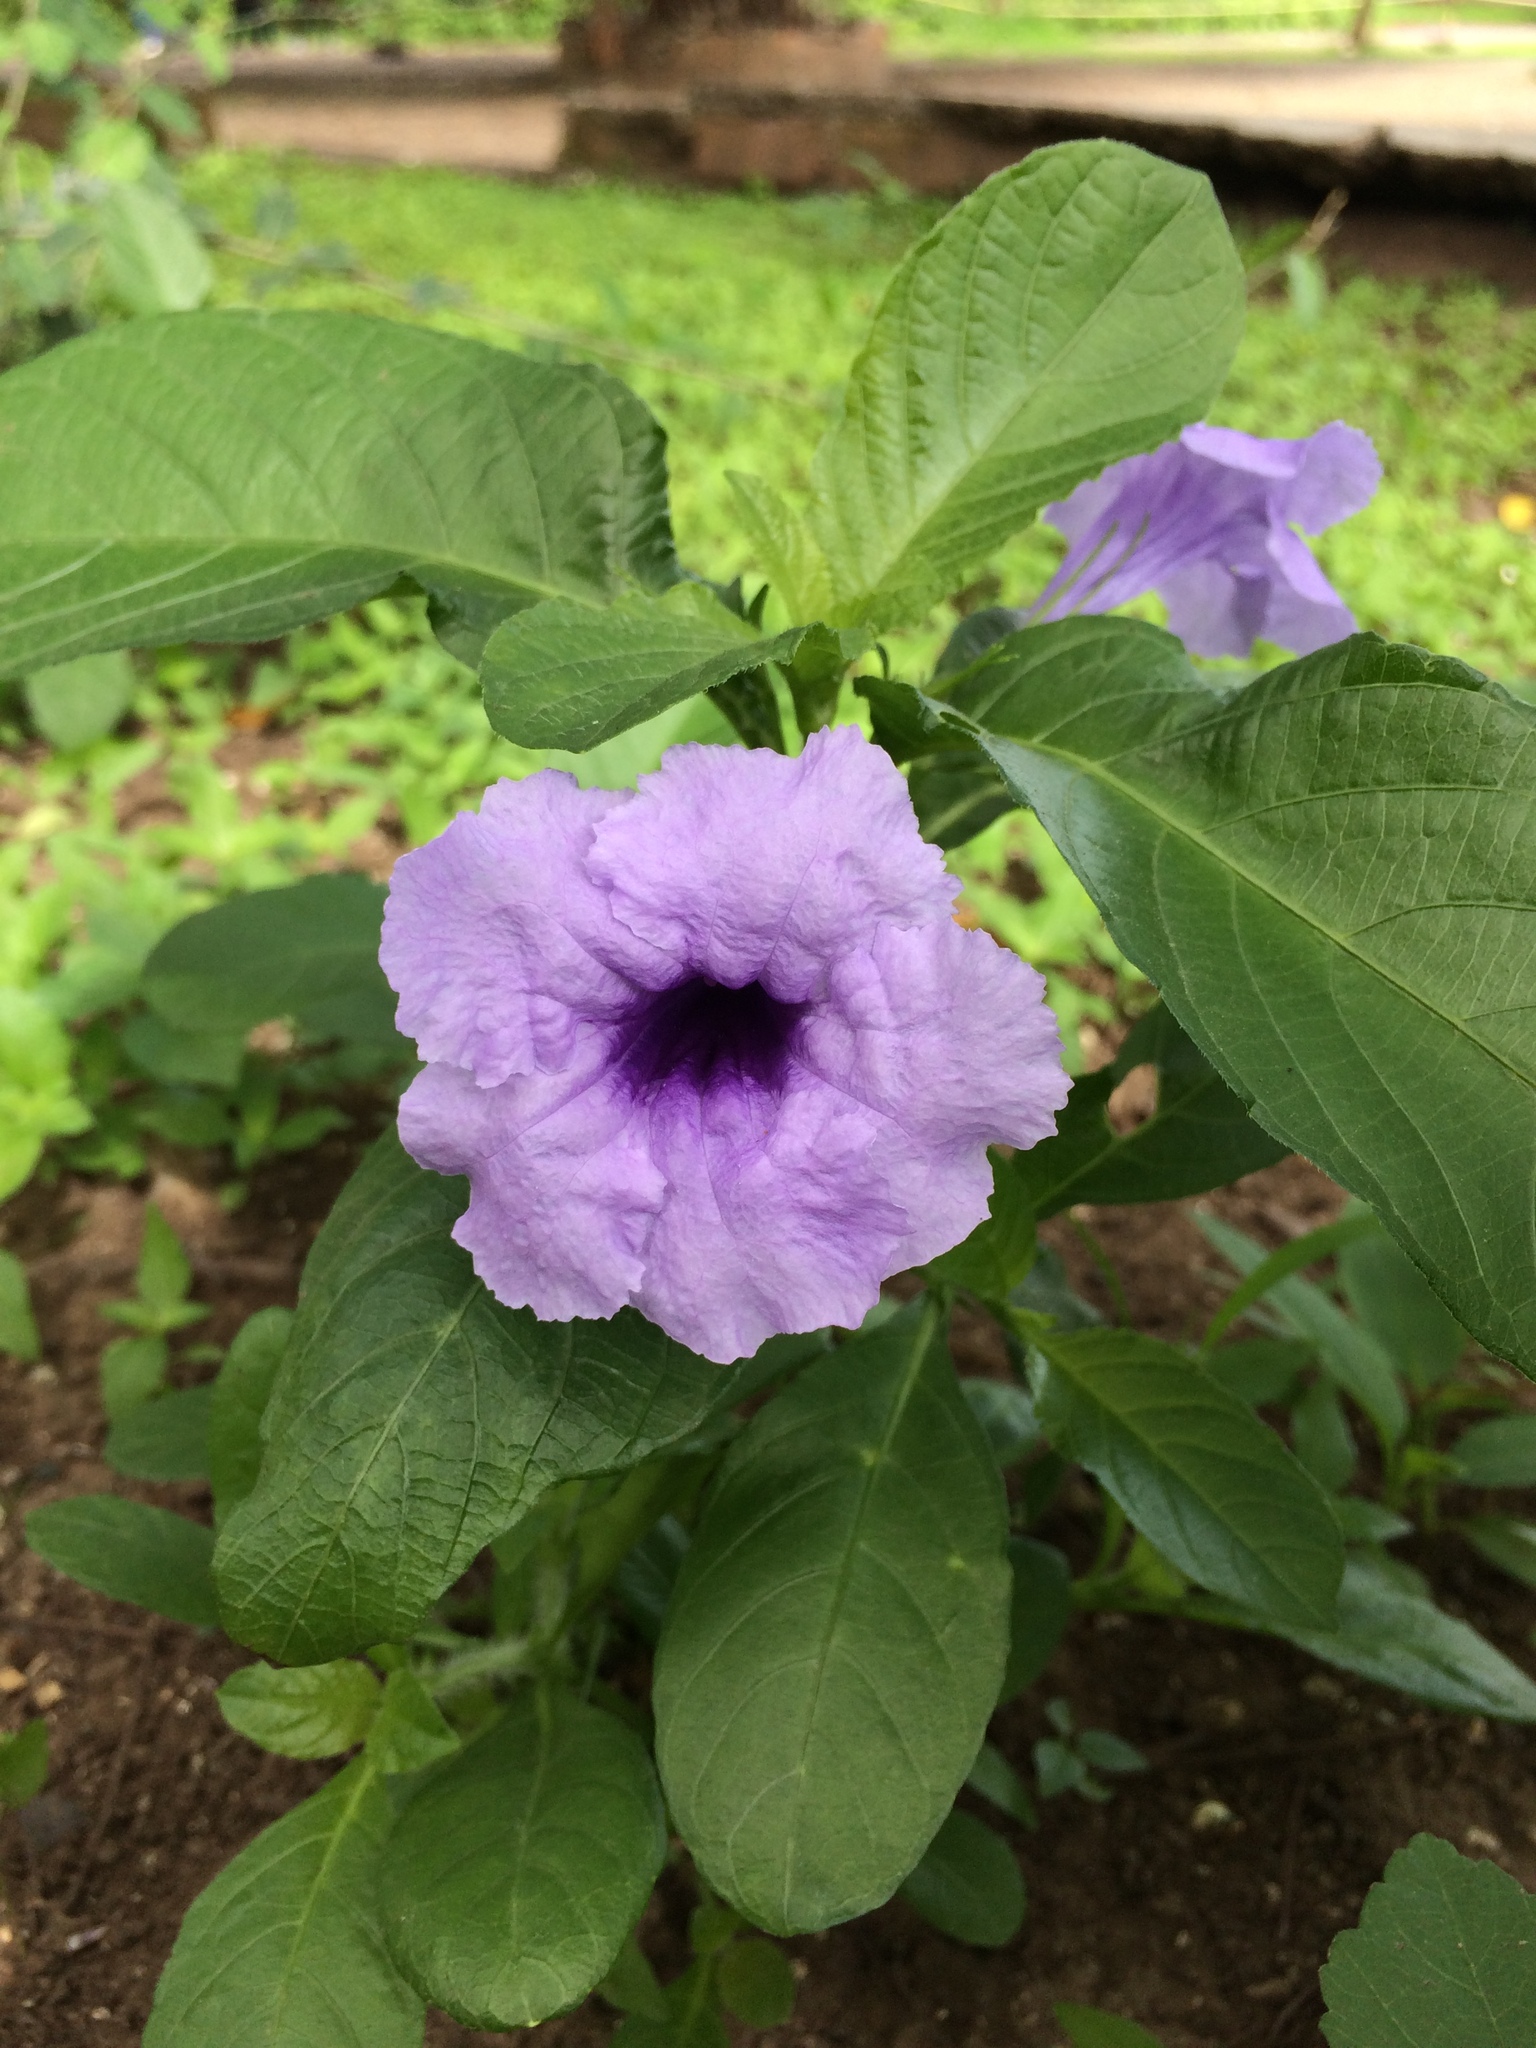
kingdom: Plantae
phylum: Tracheophyta
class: Magnoliopsida
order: Lamiales
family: Acanthaceae
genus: Ruellia
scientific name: Ruellia tuberosa
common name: Devil's bit
